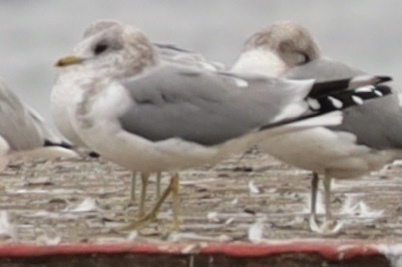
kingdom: Animalia
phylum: Chordata
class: Aves
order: Charadriiformes
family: Laridae
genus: Larus
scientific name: Larus brachyrhynchus
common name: Short-billed gull
